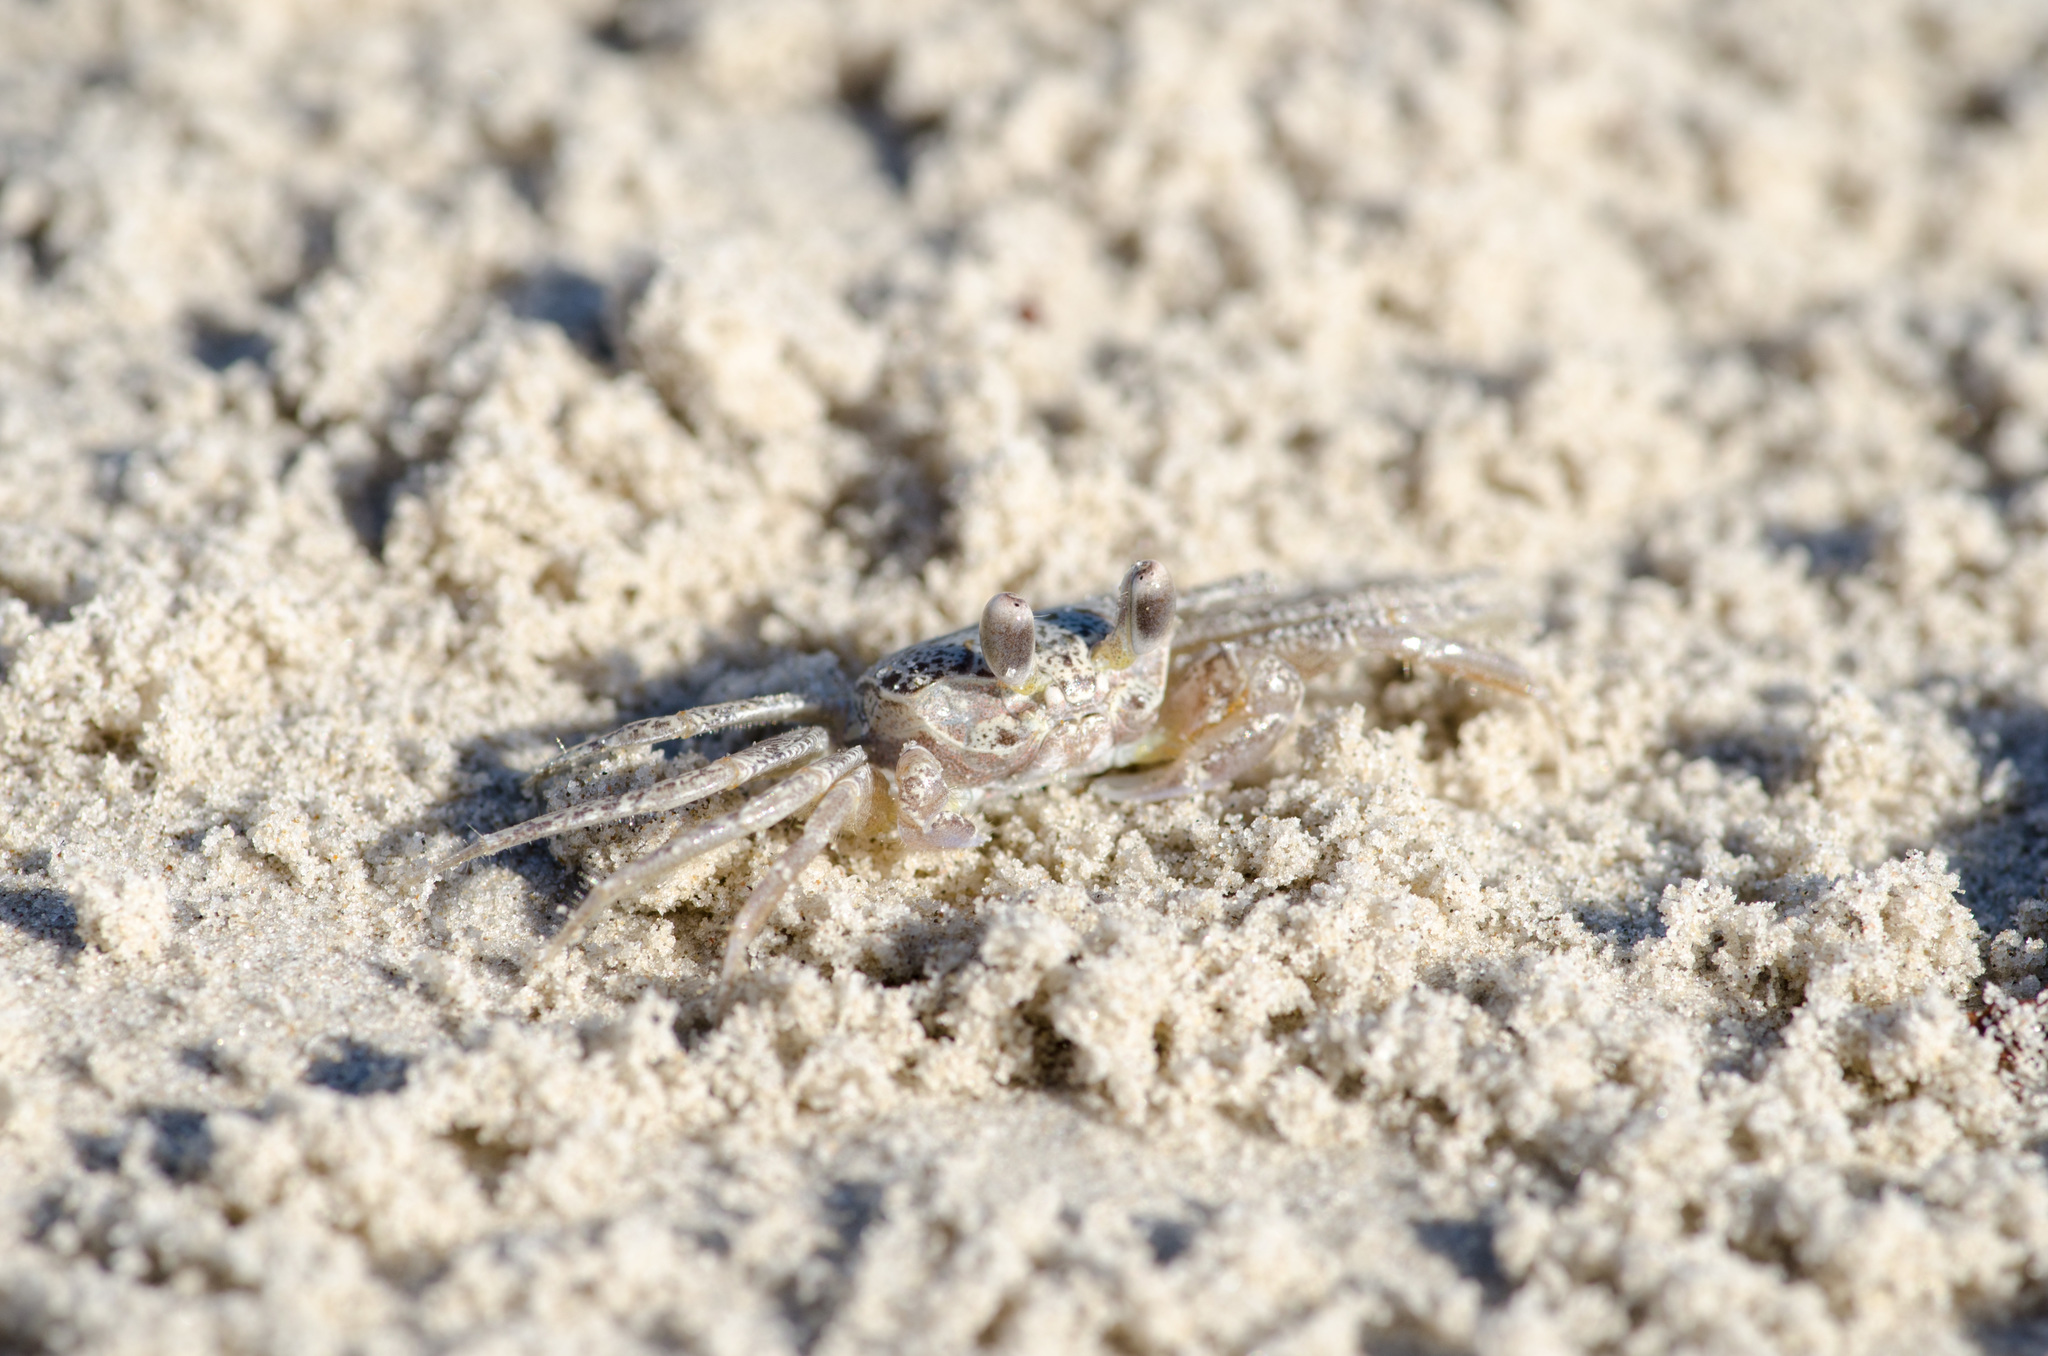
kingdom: Animalia
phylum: Arthropoda
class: Malacostraca
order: Decapoda
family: Ocypodidae
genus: Ocypode
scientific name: Ocypode quadrata
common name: Ghost crab
